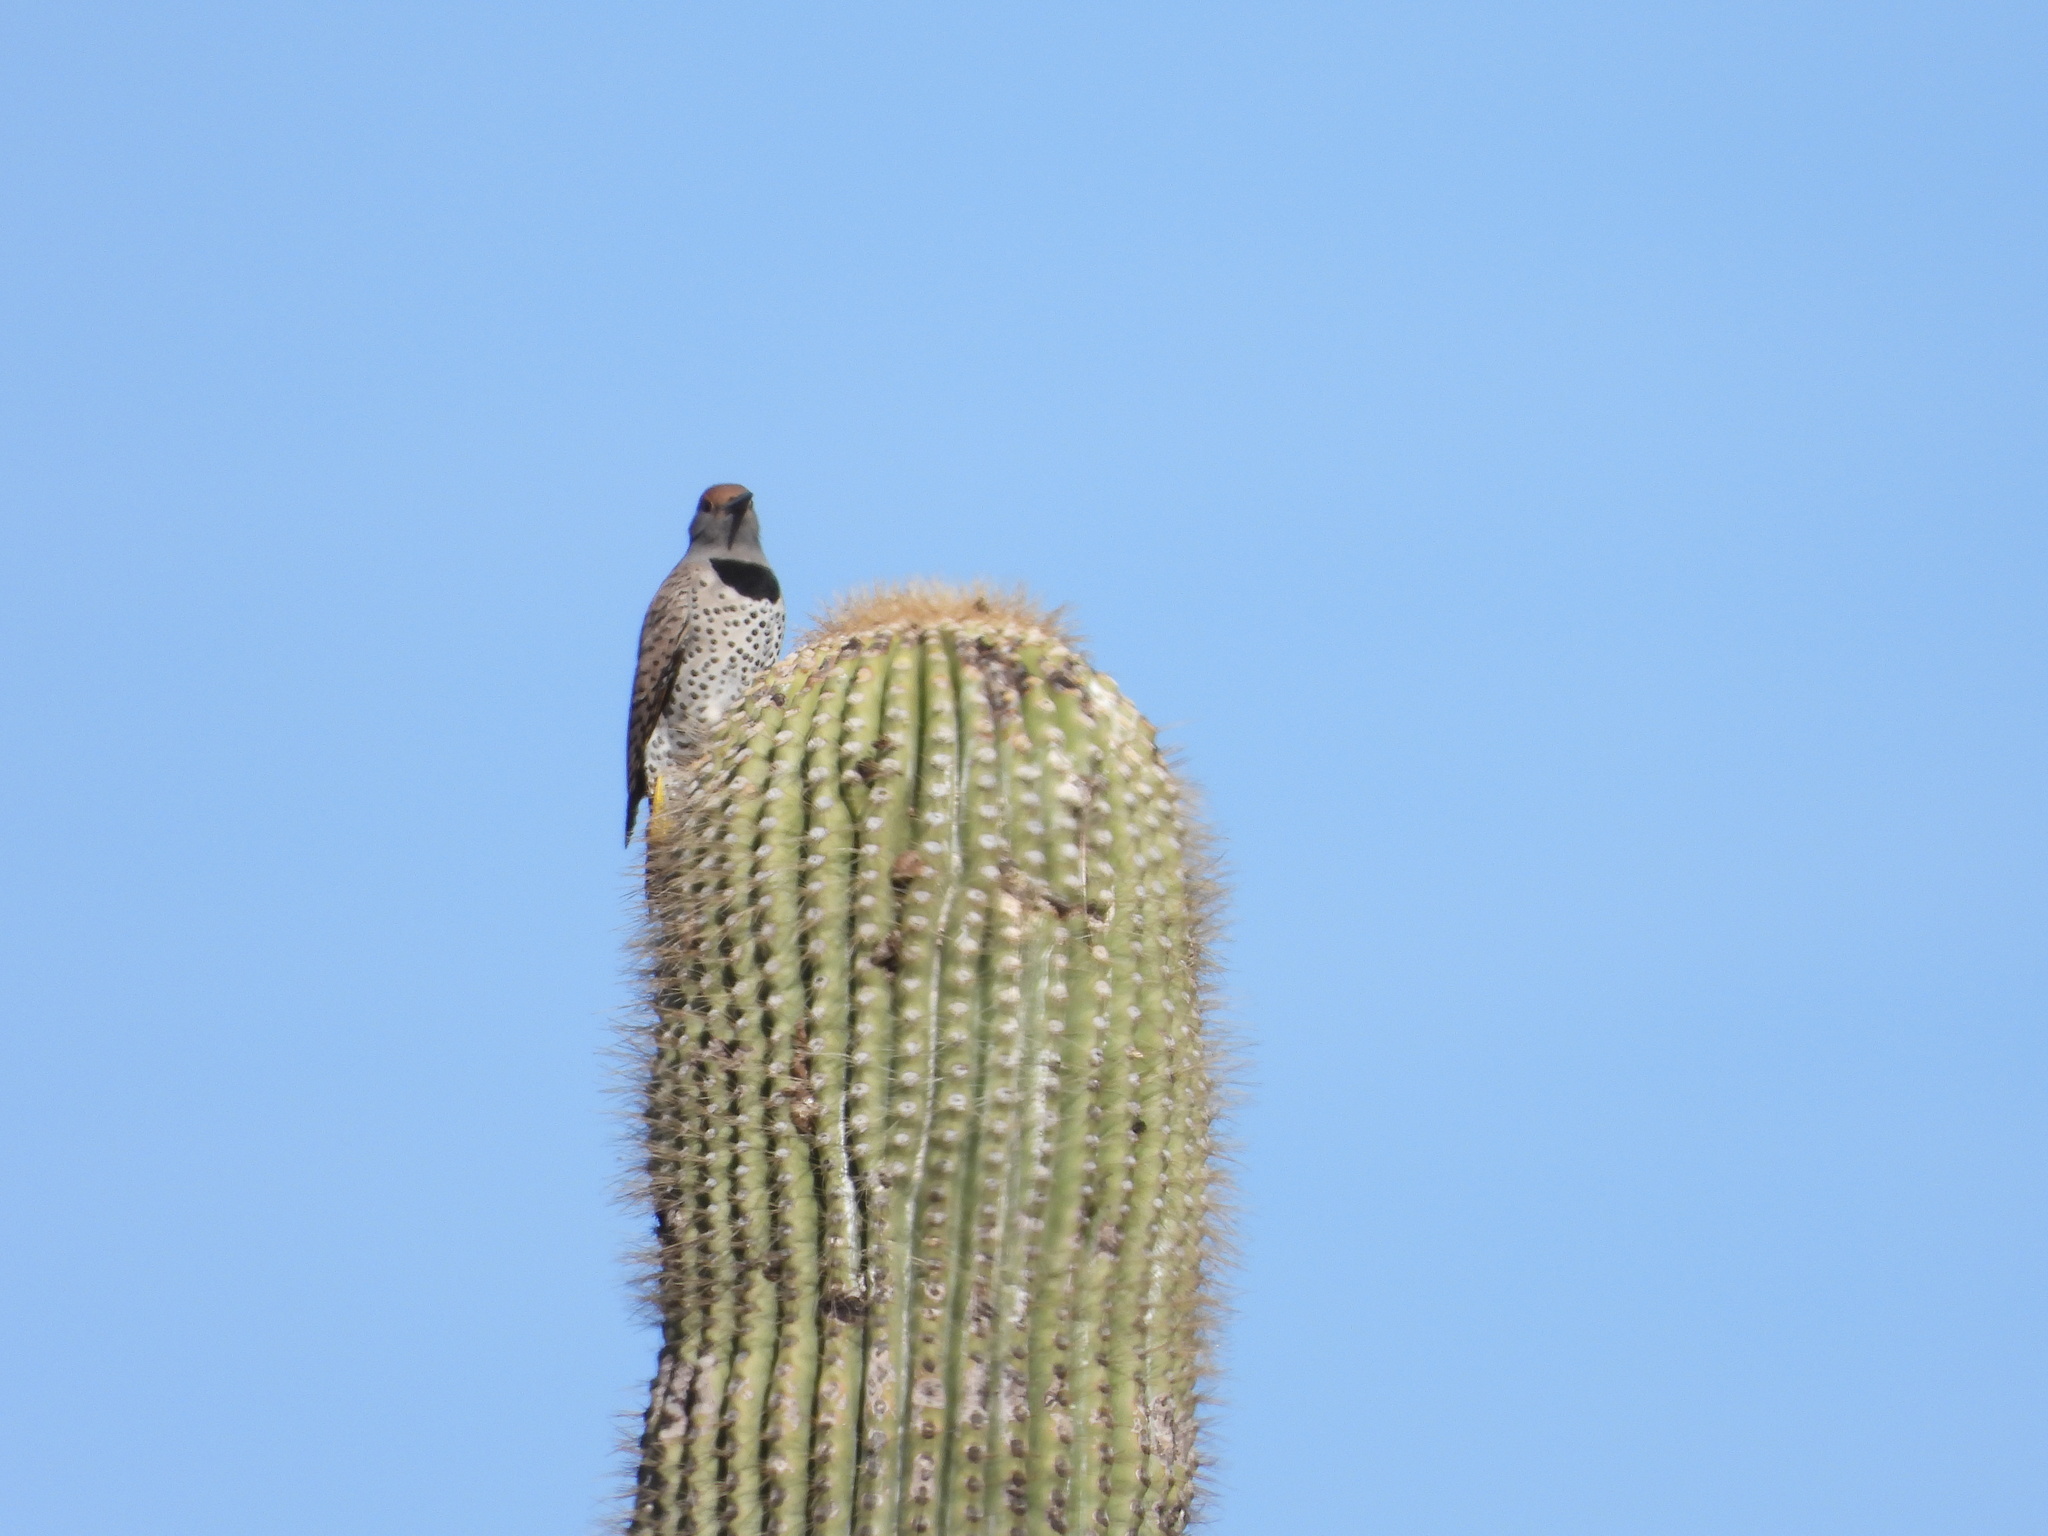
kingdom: Animalia
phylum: Chordata
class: Aves
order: Piciformes
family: Picidae
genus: Colaptes
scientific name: Colaptes chrysoides
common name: Gilded flicker
